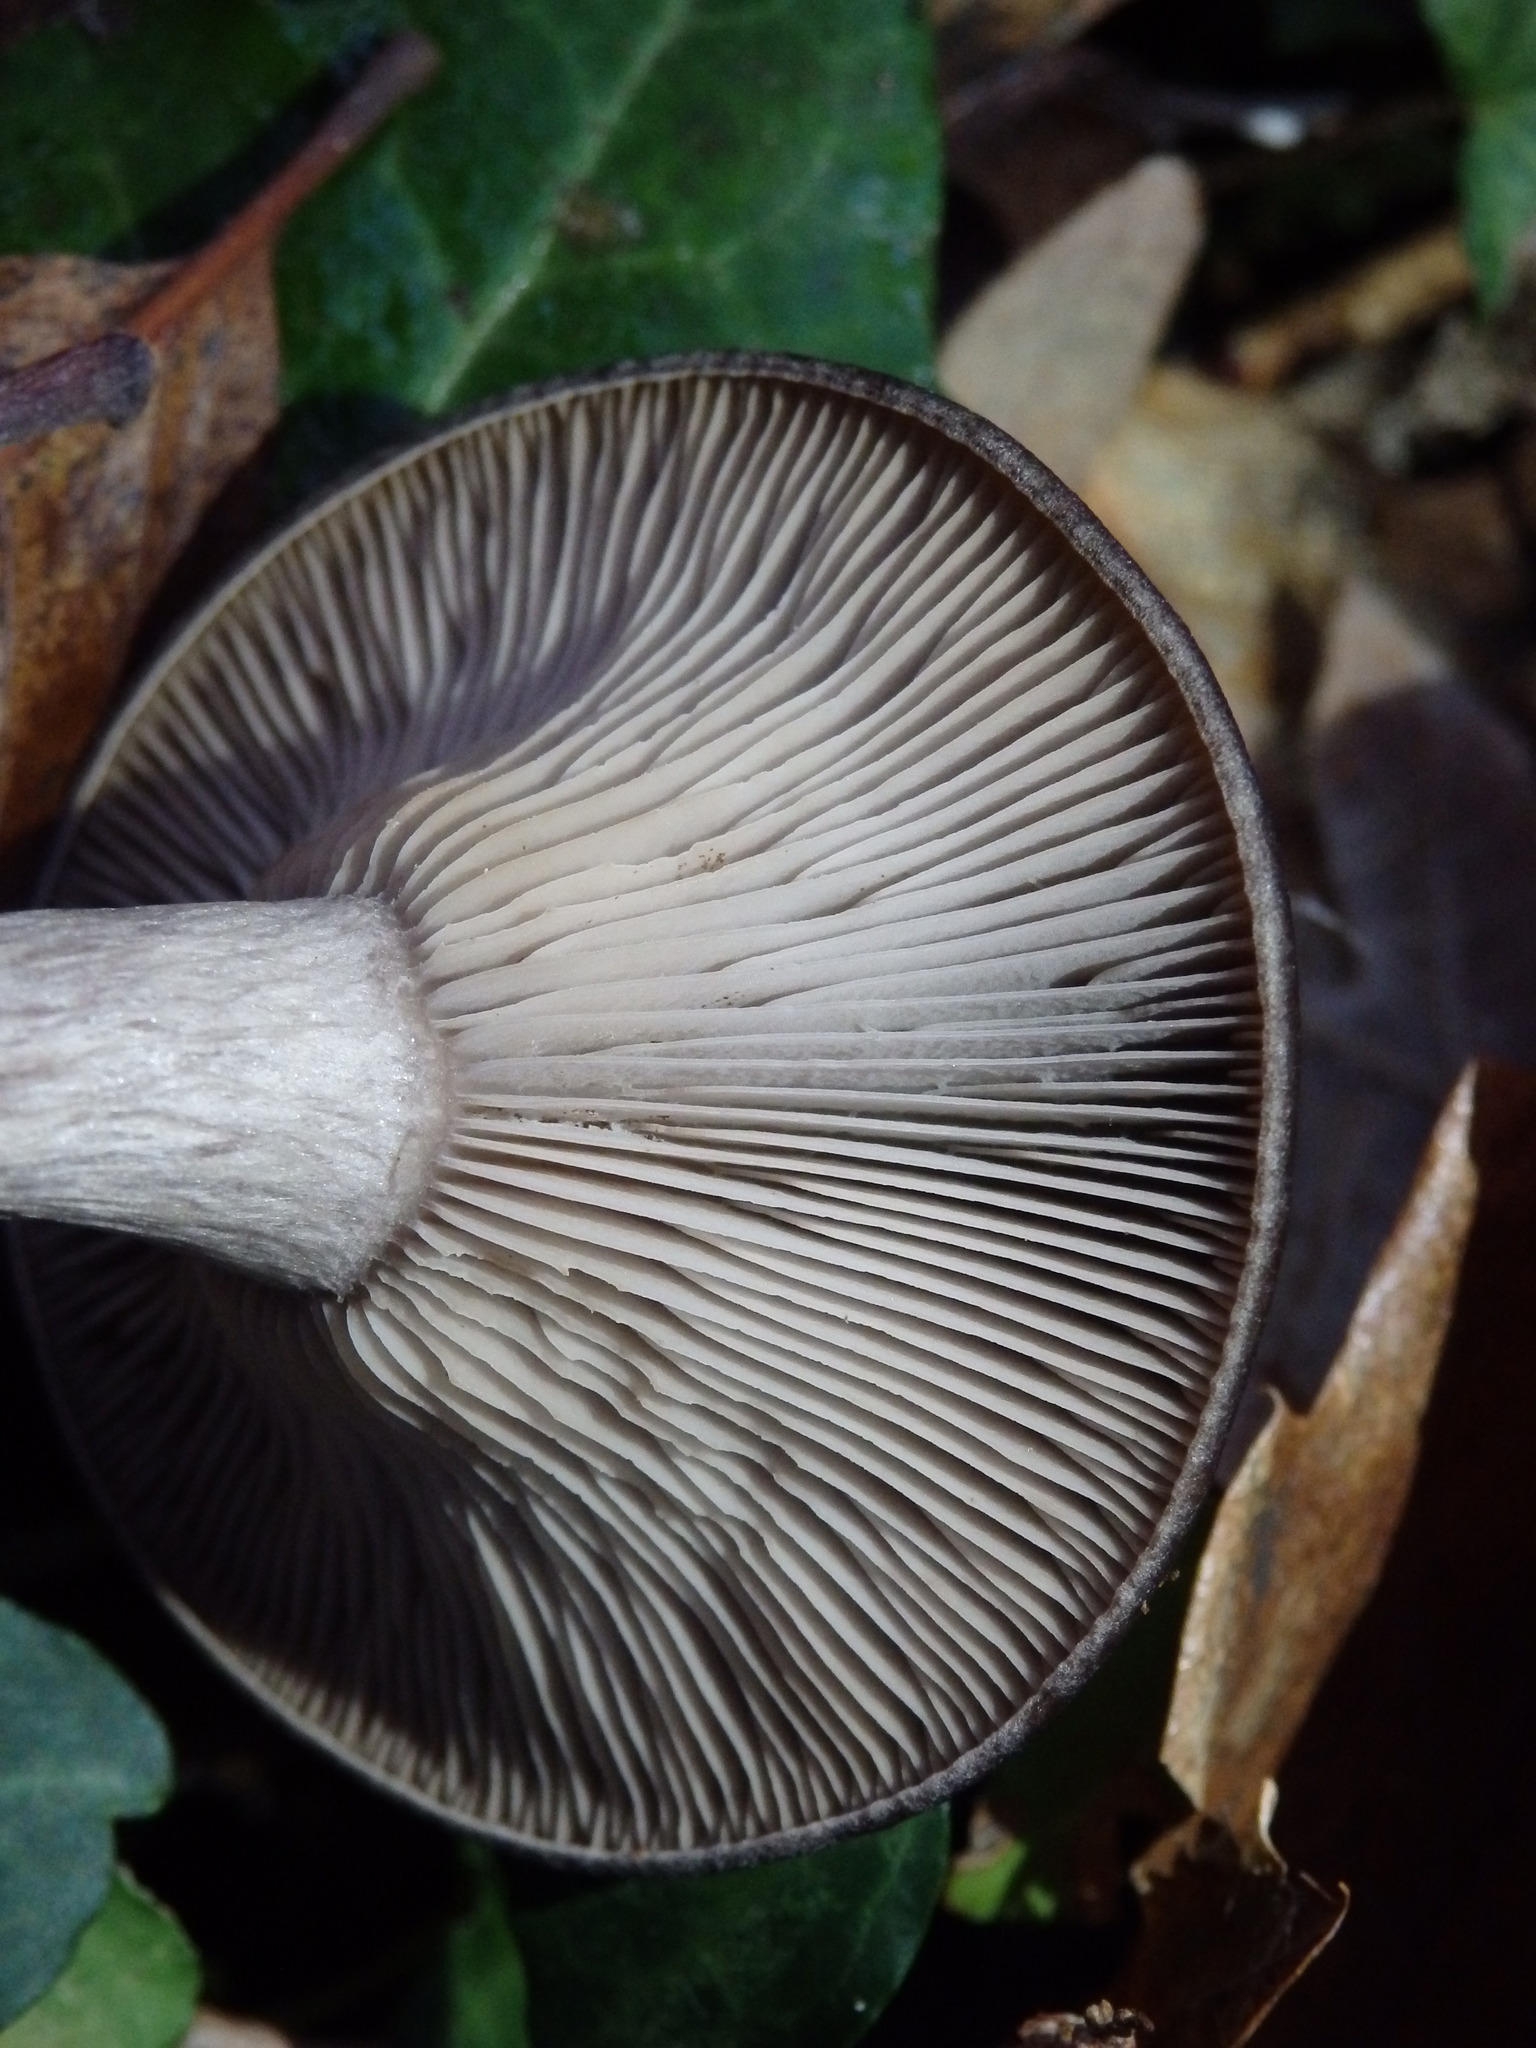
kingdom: Fungi
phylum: Basidiomycota
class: Agaricomycetes
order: Agaricales
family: Pseudoclitocybaceae
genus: Pseudoclitocybe
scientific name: Pseudoclitocybe cyathiformis
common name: Goblet
